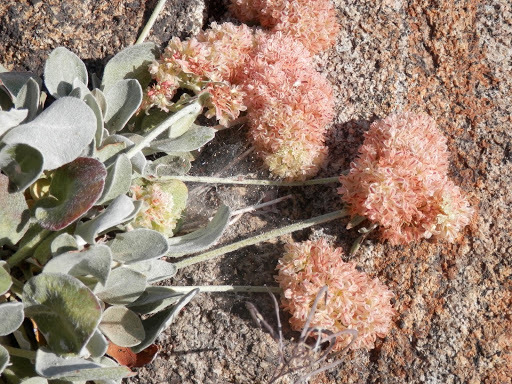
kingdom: Plantae
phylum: Tracheophyta
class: Magnoliopsida
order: Caryophyllales
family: Polygonaceae
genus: Eriogonum
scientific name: Eriogonum lobbii
